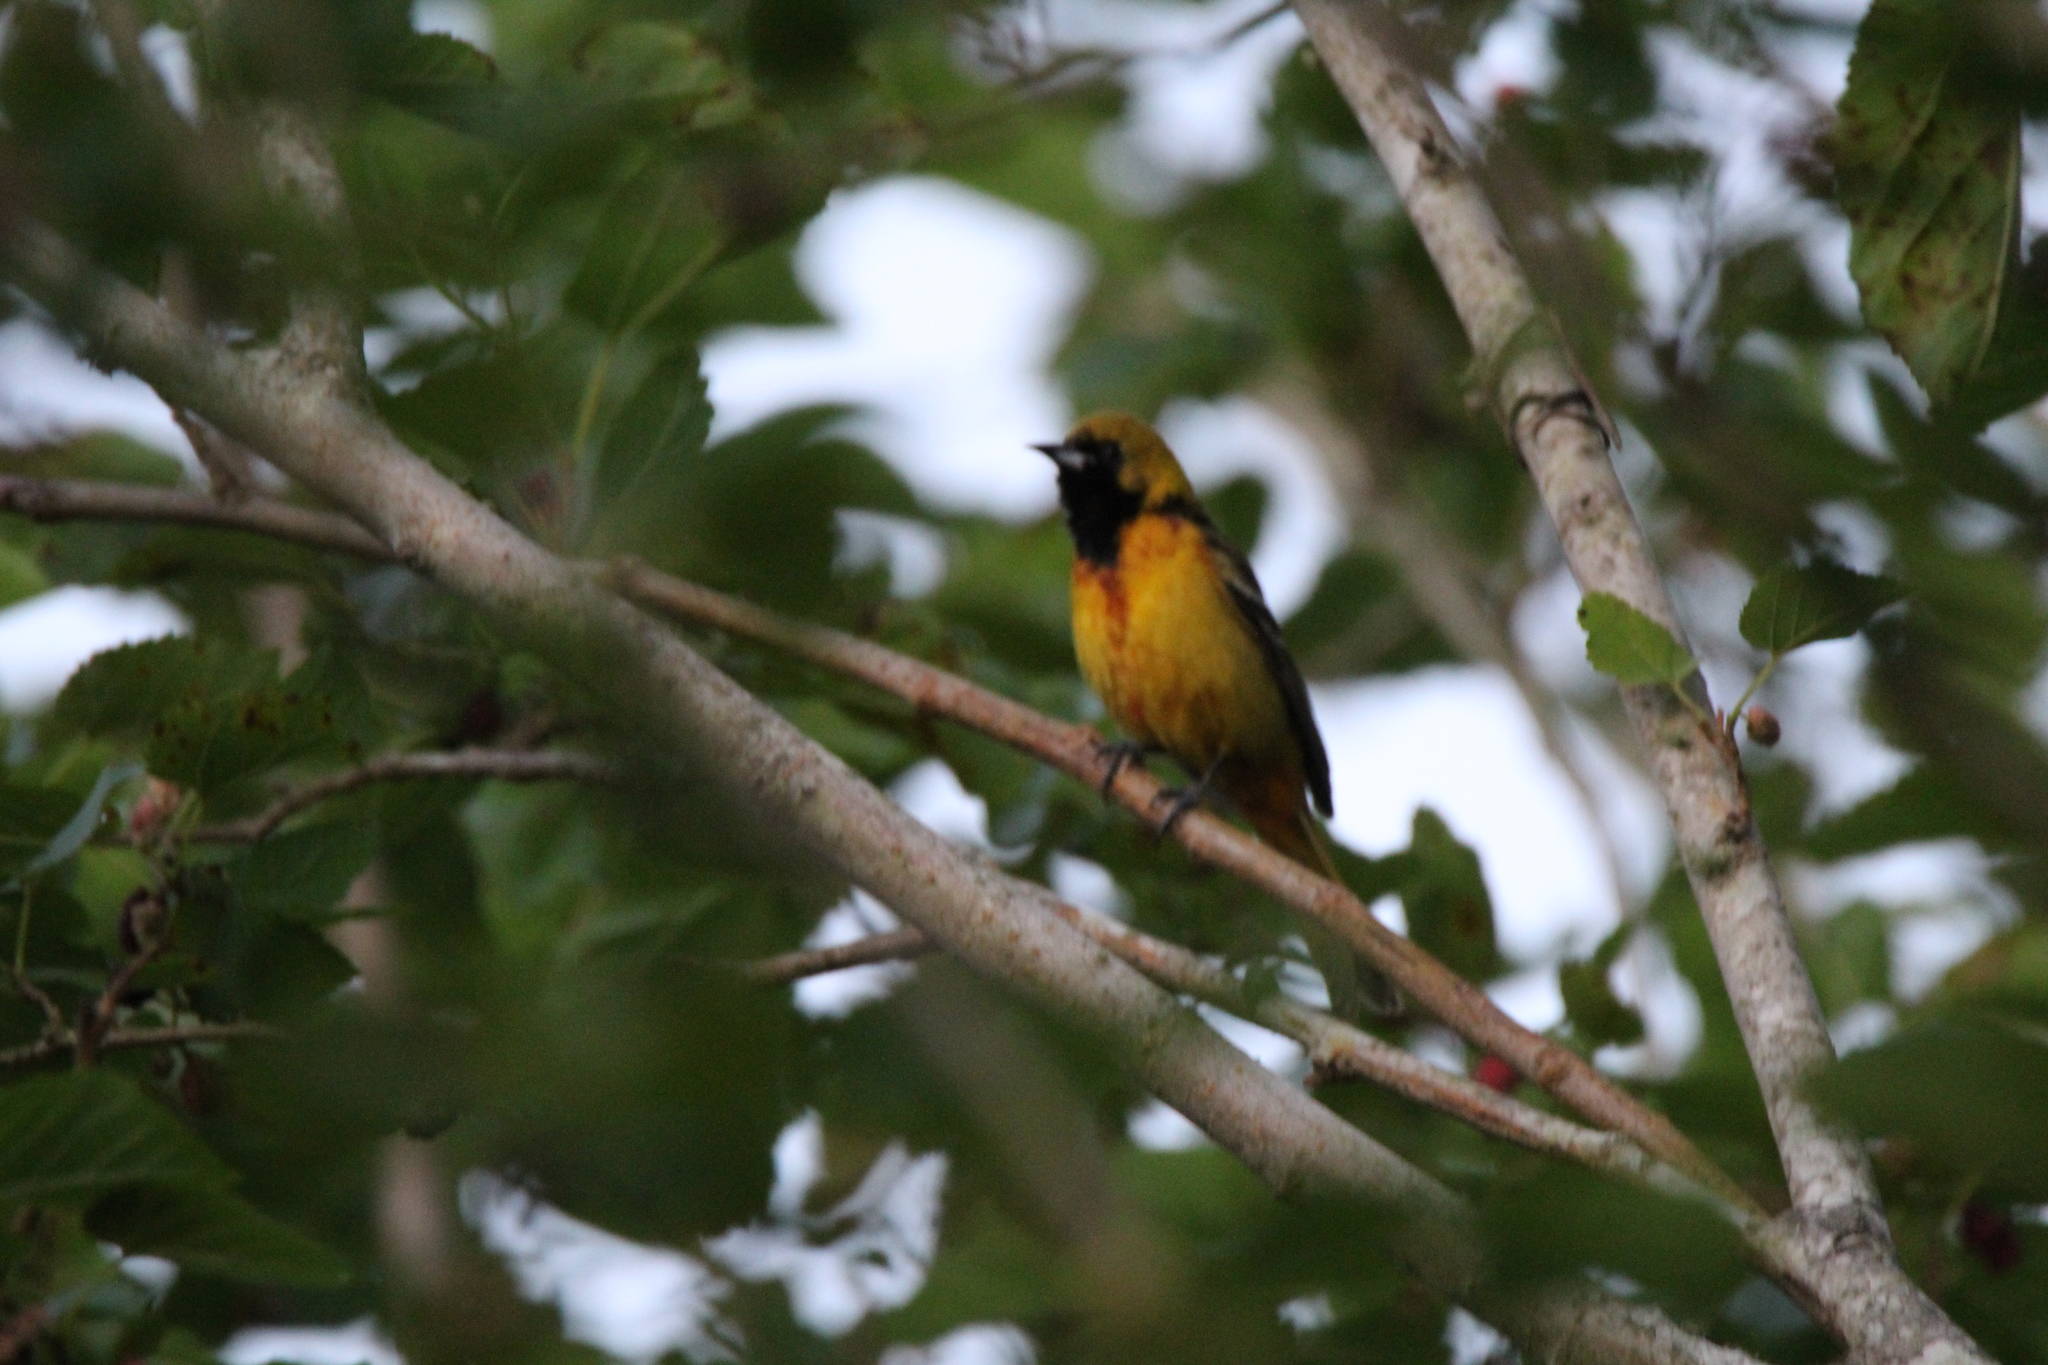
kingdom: Animalia
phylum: Chordata
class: Aves
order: Passeriformes
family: Icteridae
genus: Icterus
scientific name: Icterus spurius
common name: Orchard oriole
